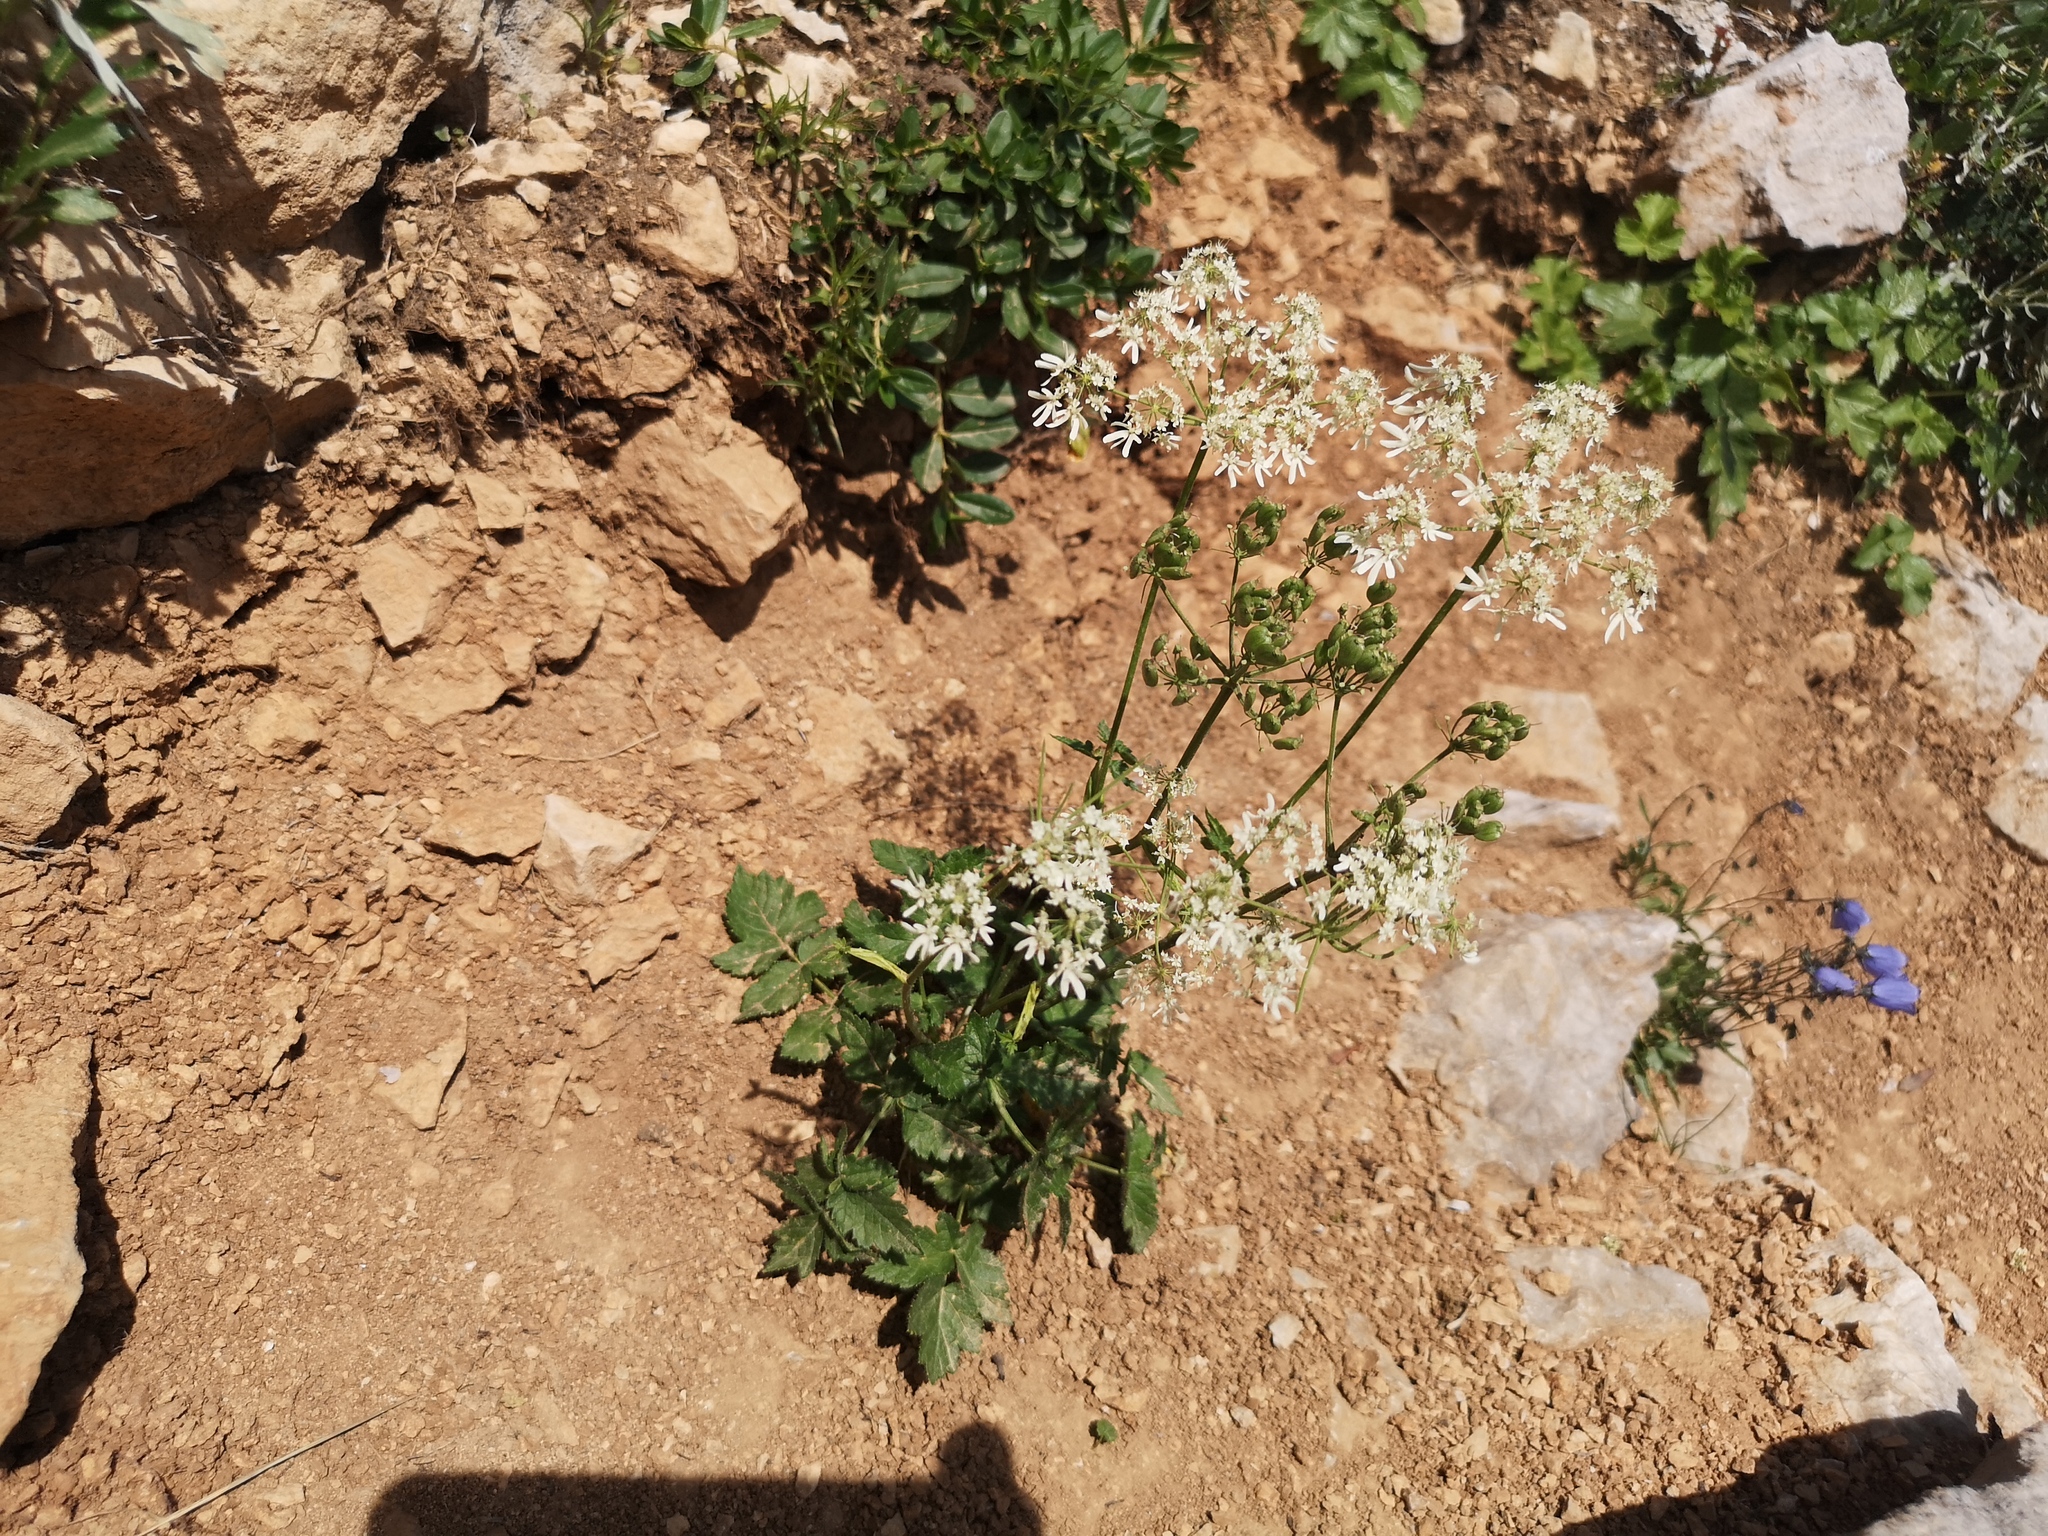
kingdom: Plantae
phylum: Tracheophyta
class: Magnoliopsida
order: Apiales
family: Apiaceae
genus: Heracleum
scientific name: Heracleum austriacum
